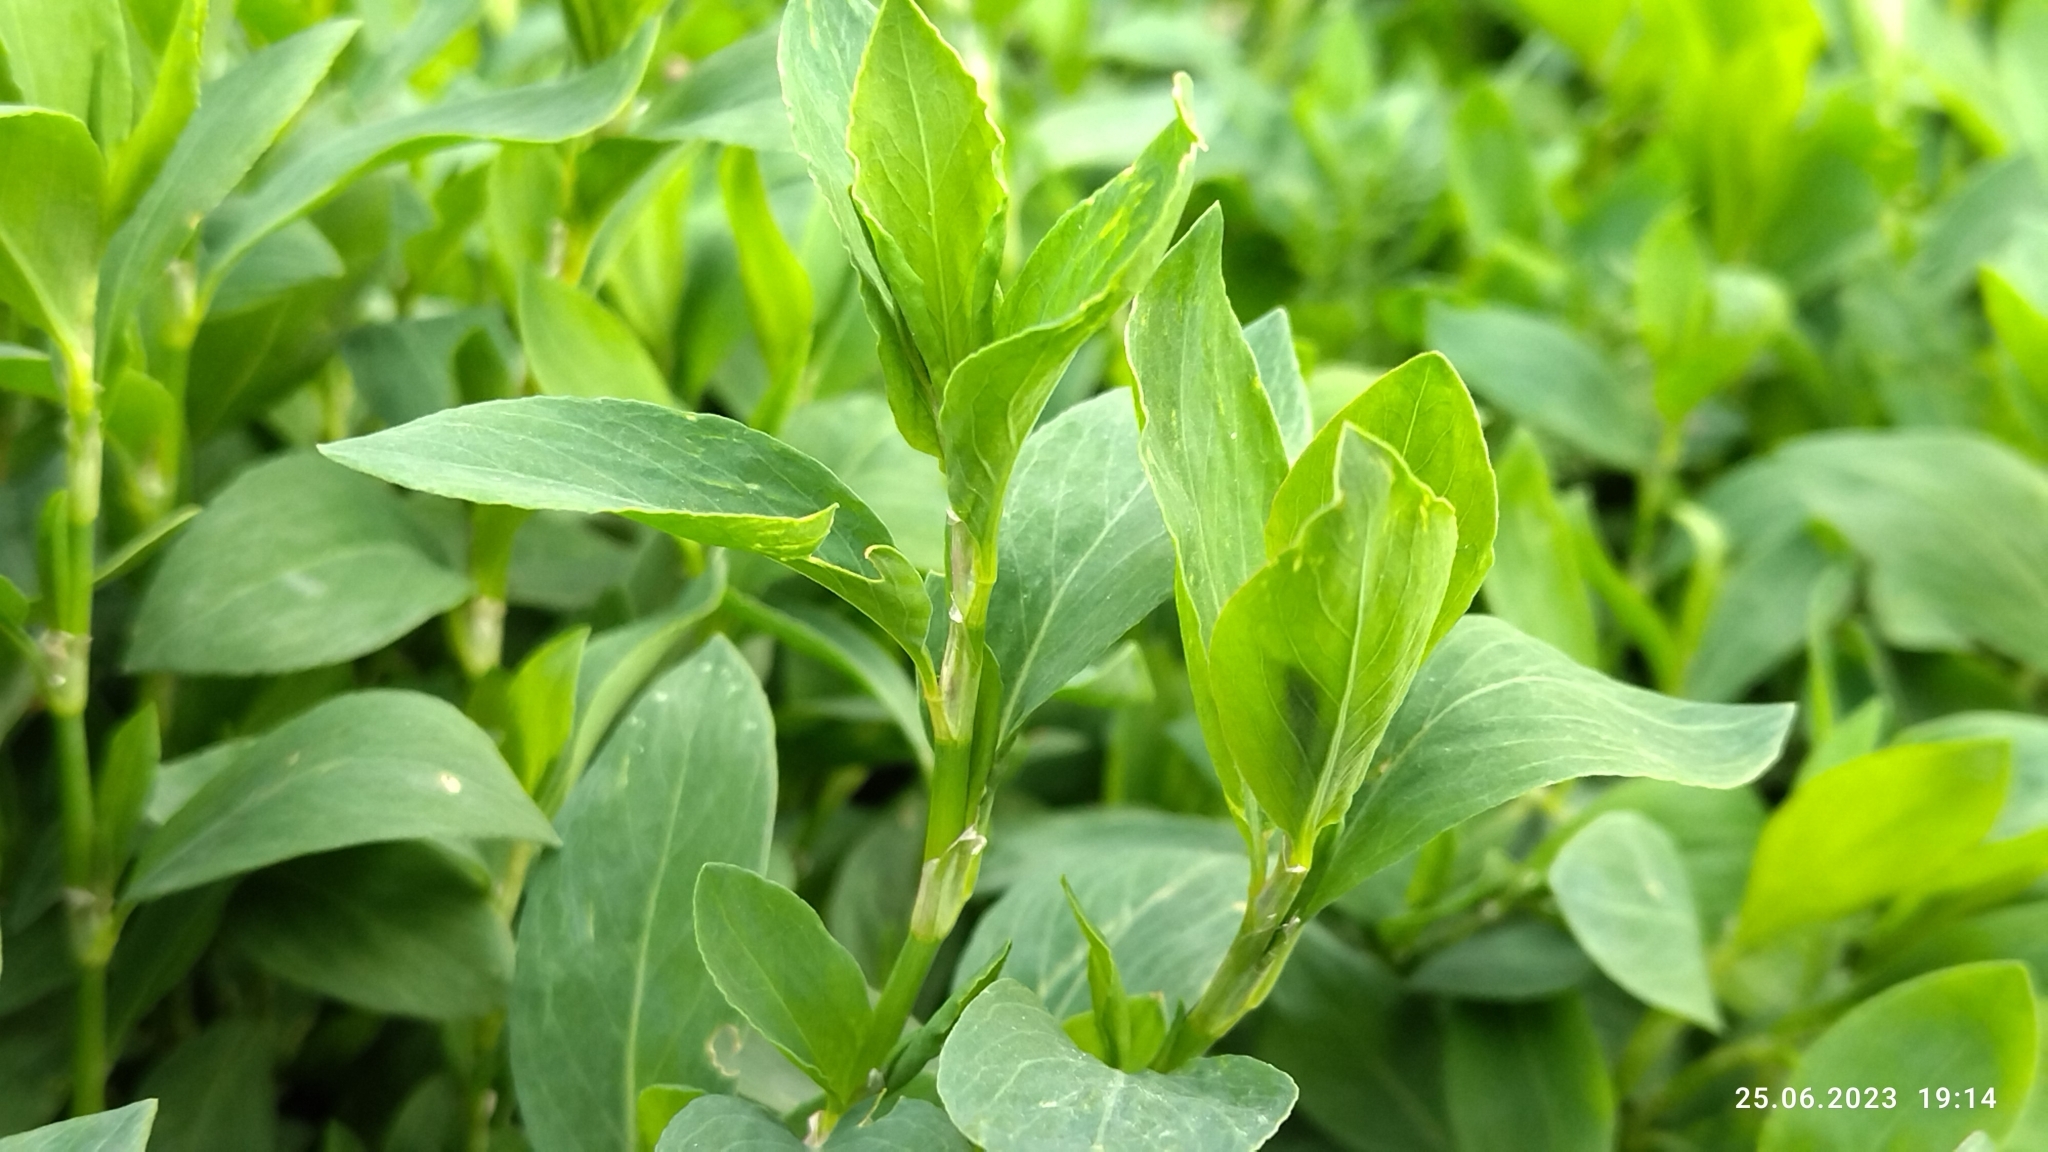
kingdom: Plantae
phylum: Tracheophyta
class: Magnoliopsida
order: Caryophyllales
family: Polygonaceae
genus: Polygonum
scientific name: Polygonum
